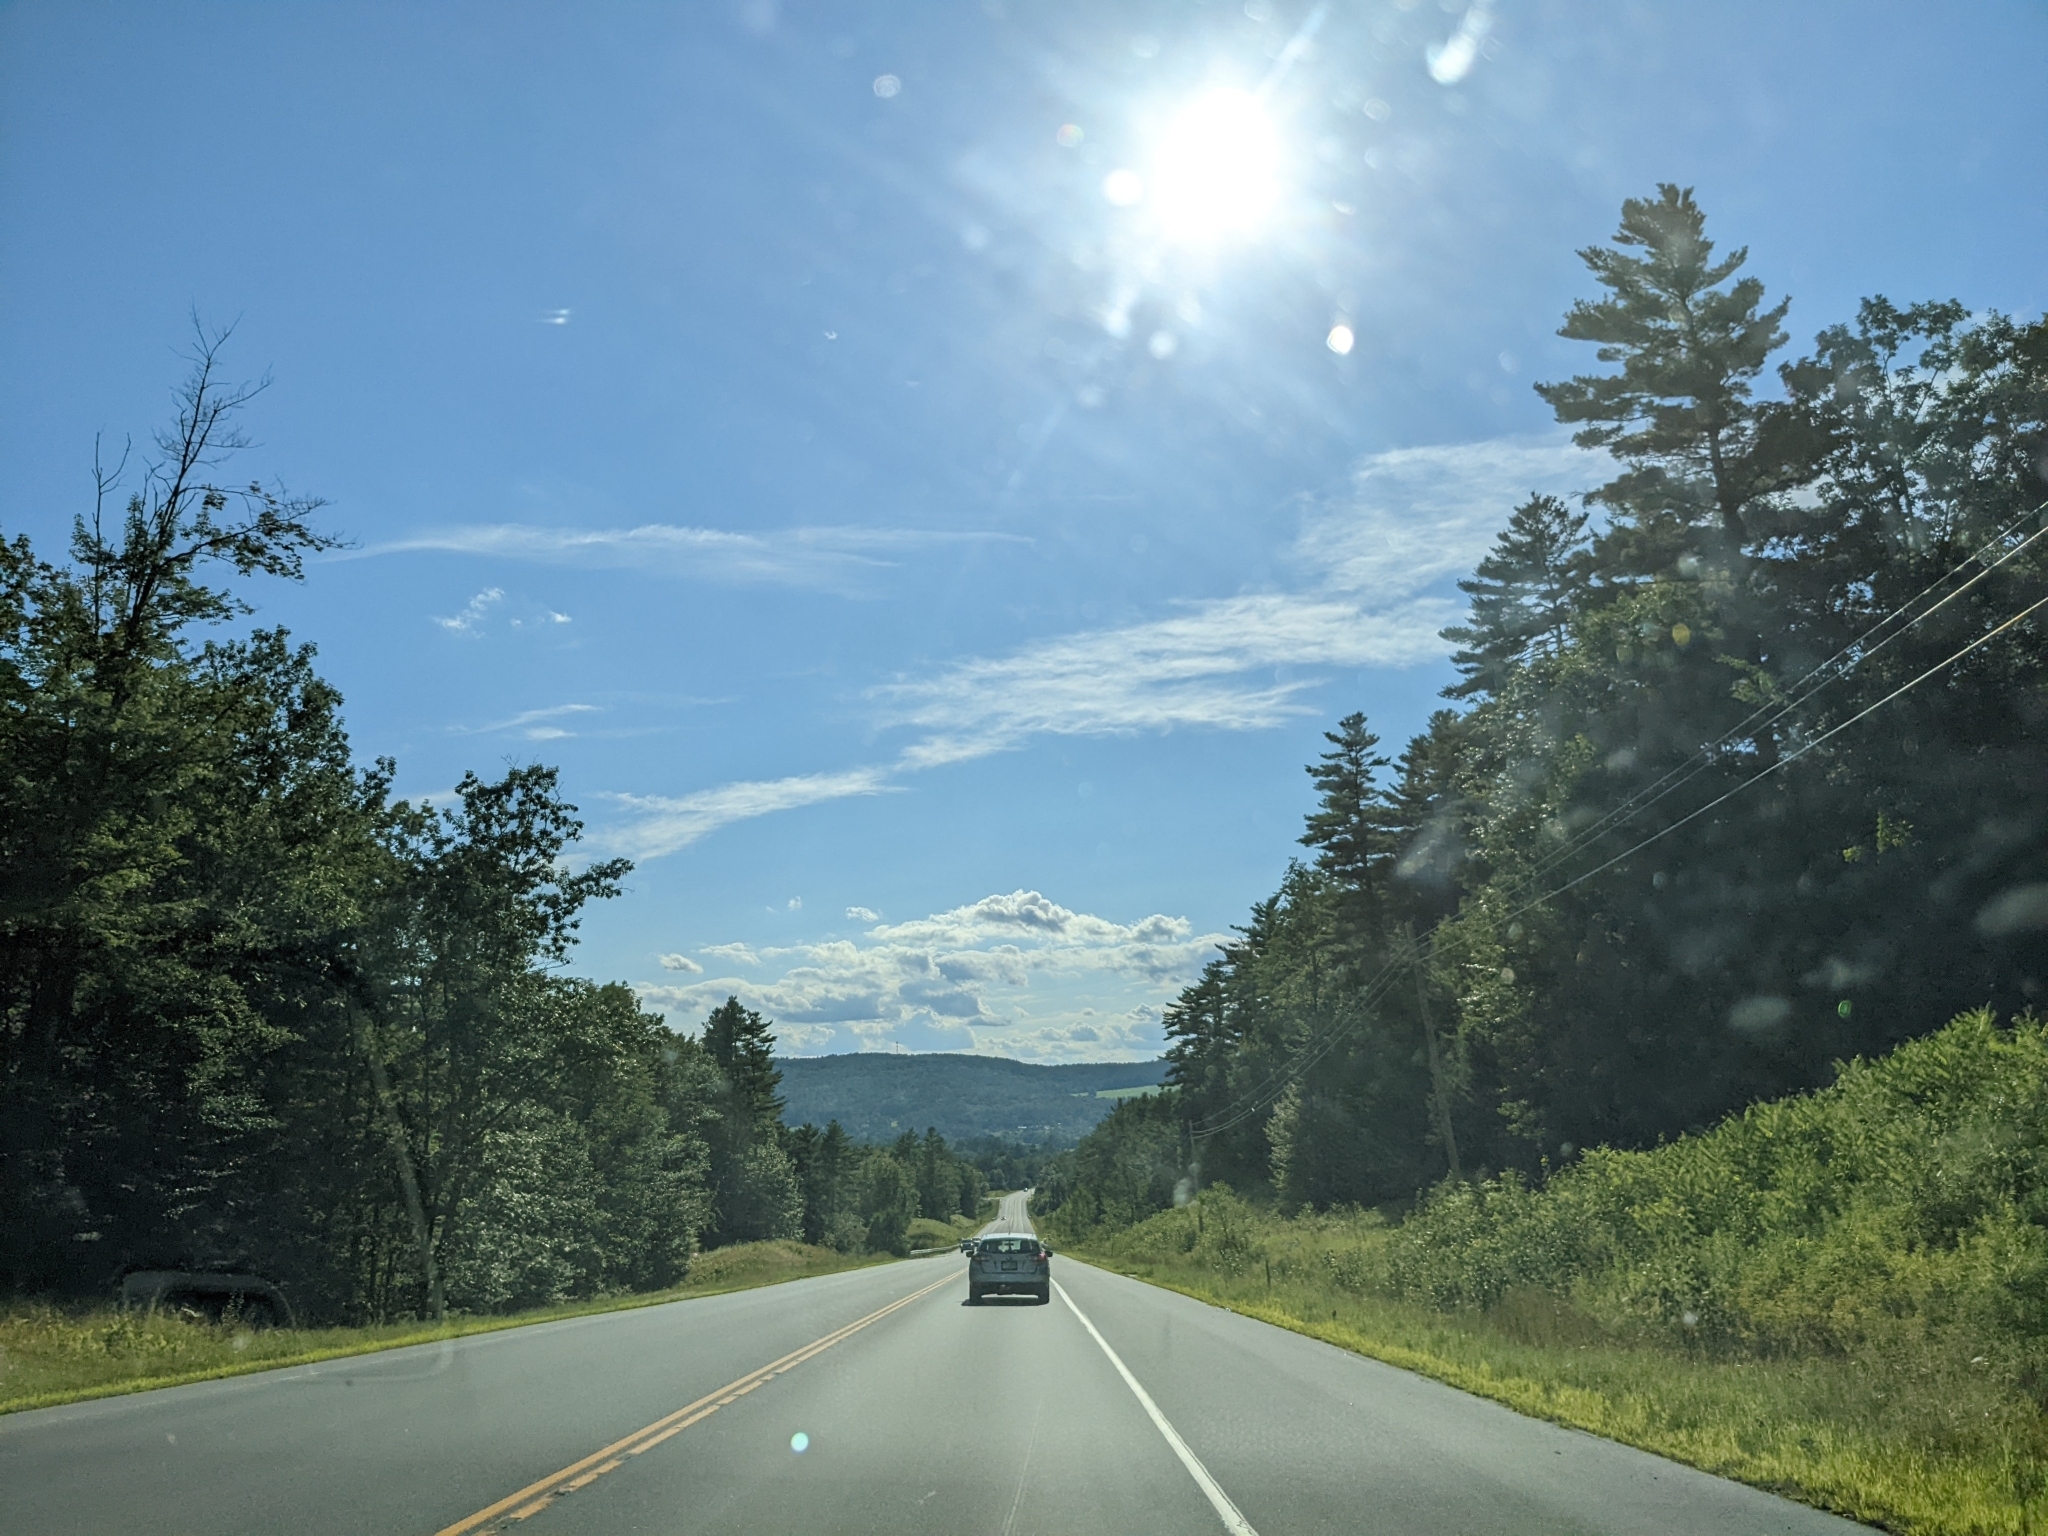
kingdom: Plantae
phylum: Tracheophyta
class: Pinopsida
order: Pinales
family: Pinaceae
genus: Pinus
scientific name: Pinus strobus
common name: Weymouth pine
